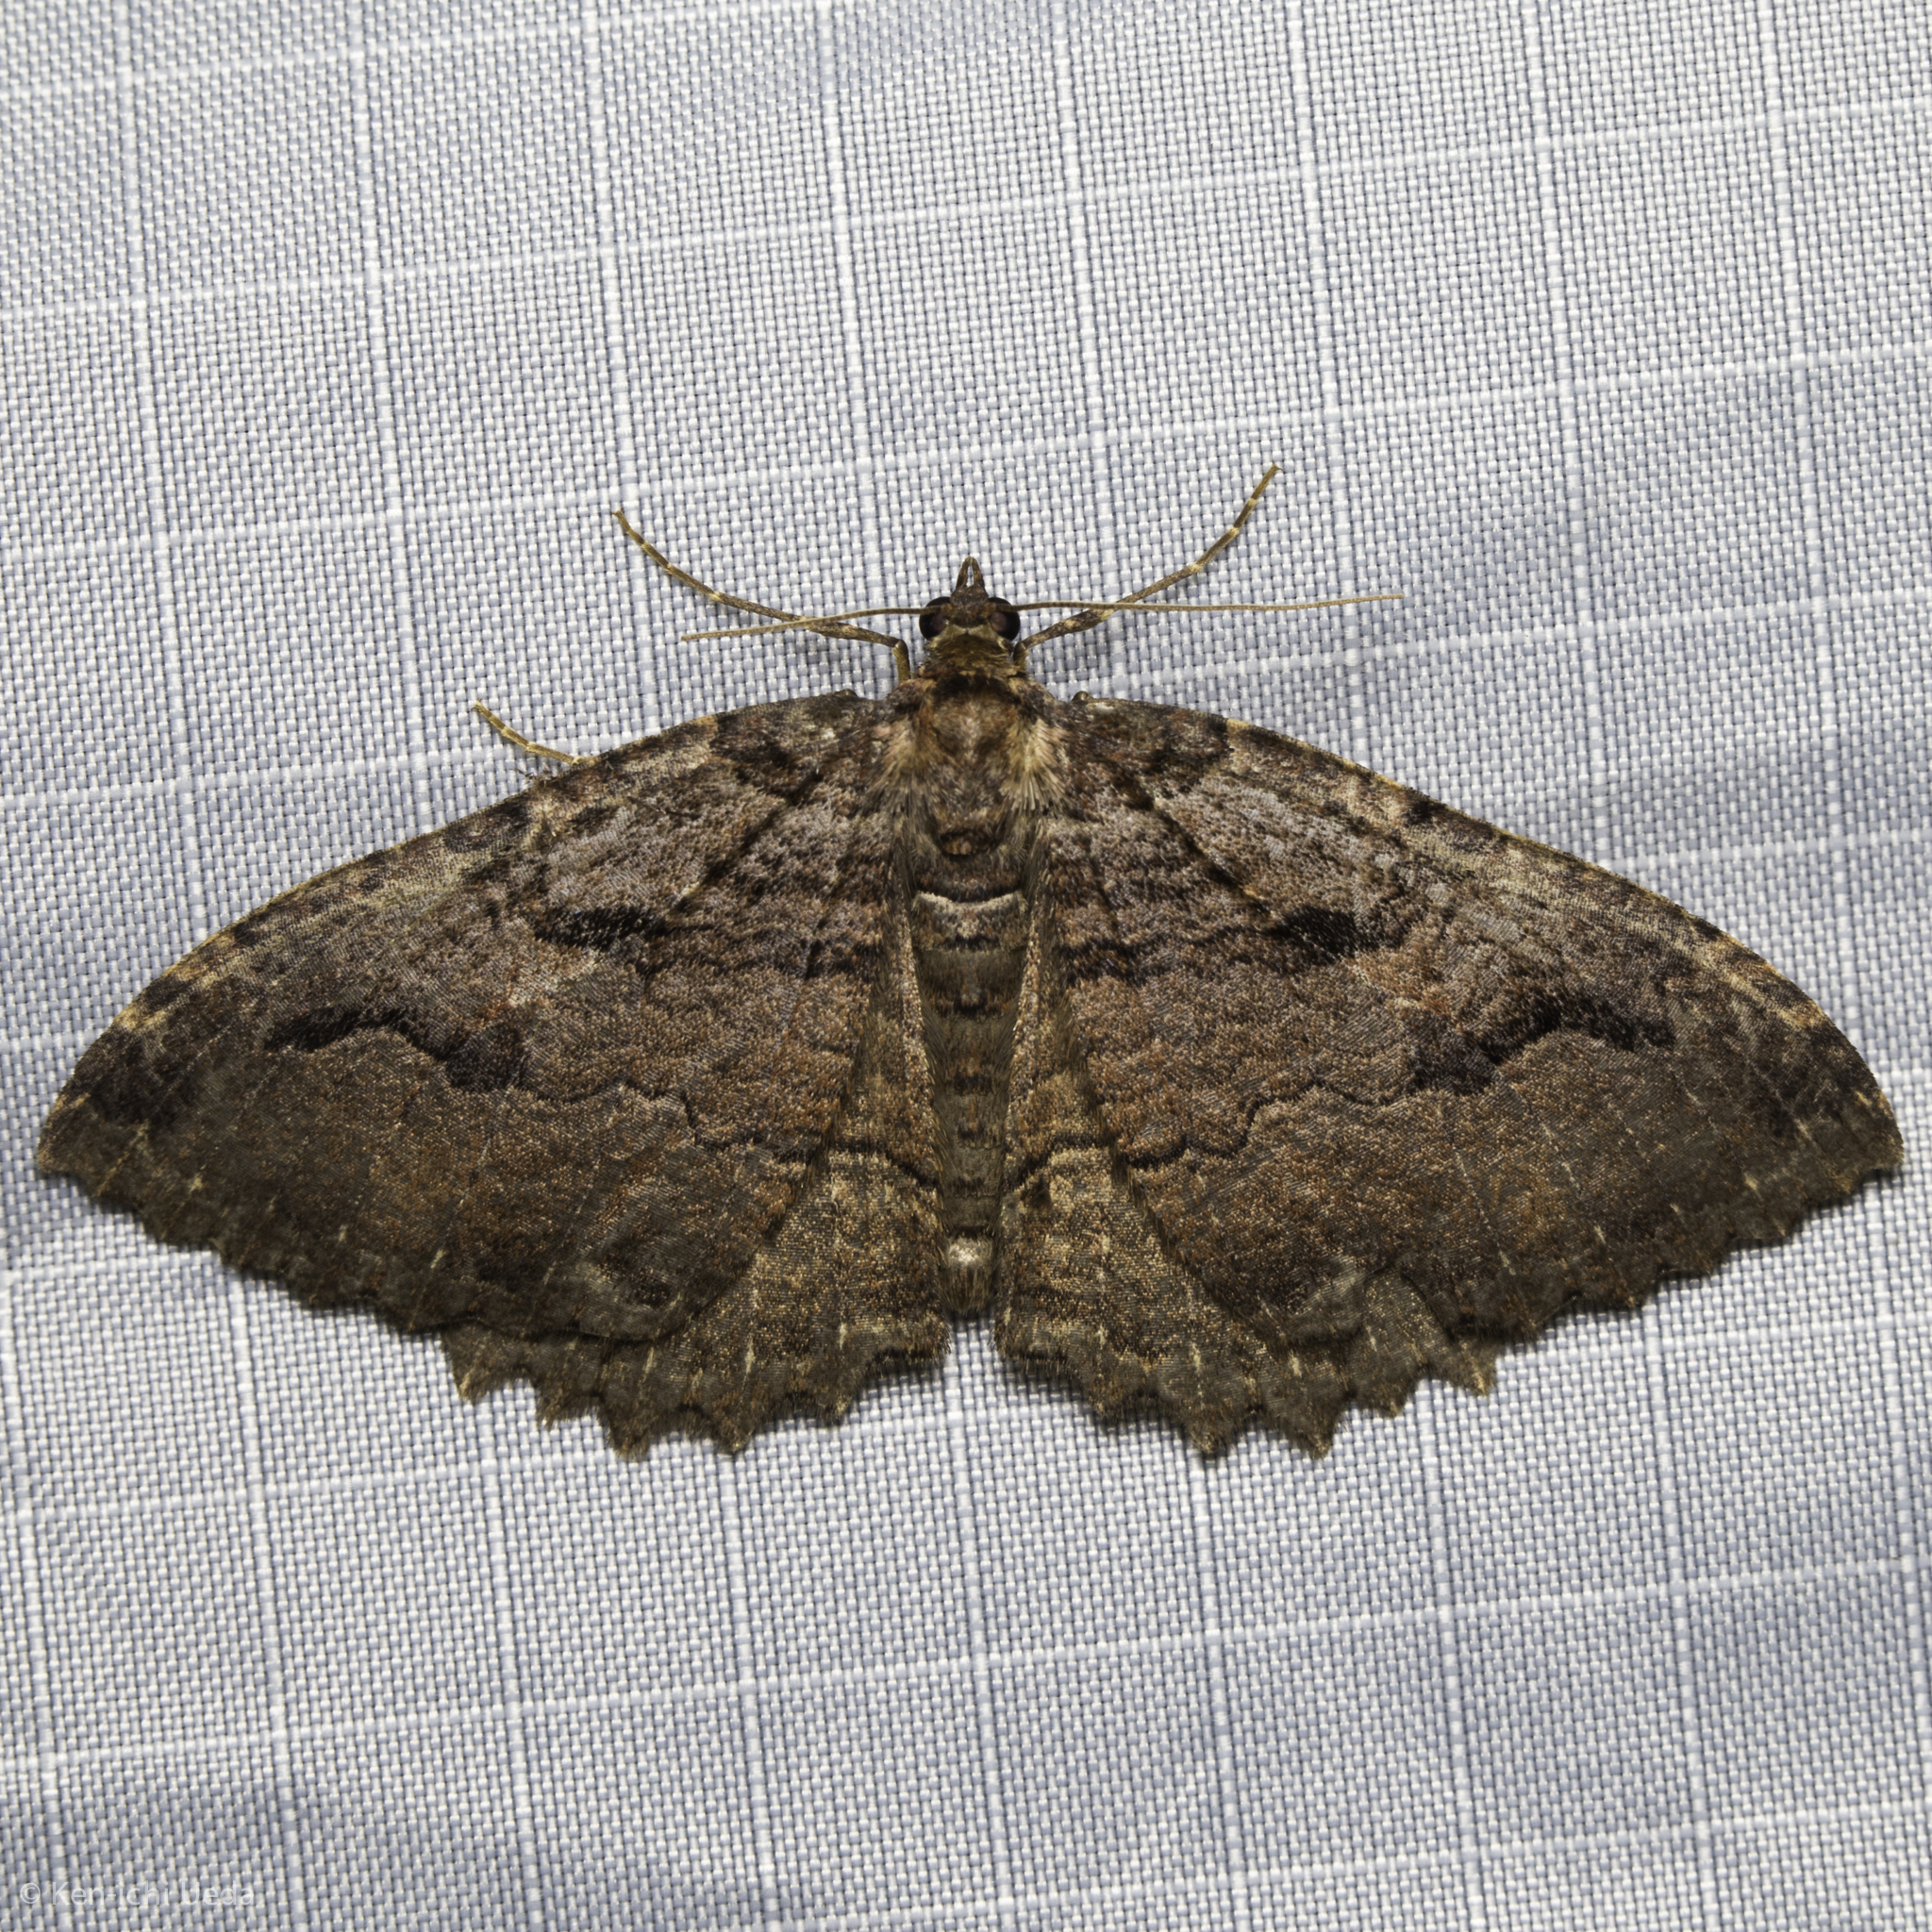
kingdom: Animalia
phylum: Arthropoda
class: Insecta
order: Lepidoptera
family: Geometridae
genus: Triphosa
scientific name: Triphosa haesitata
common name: Tissue moth
